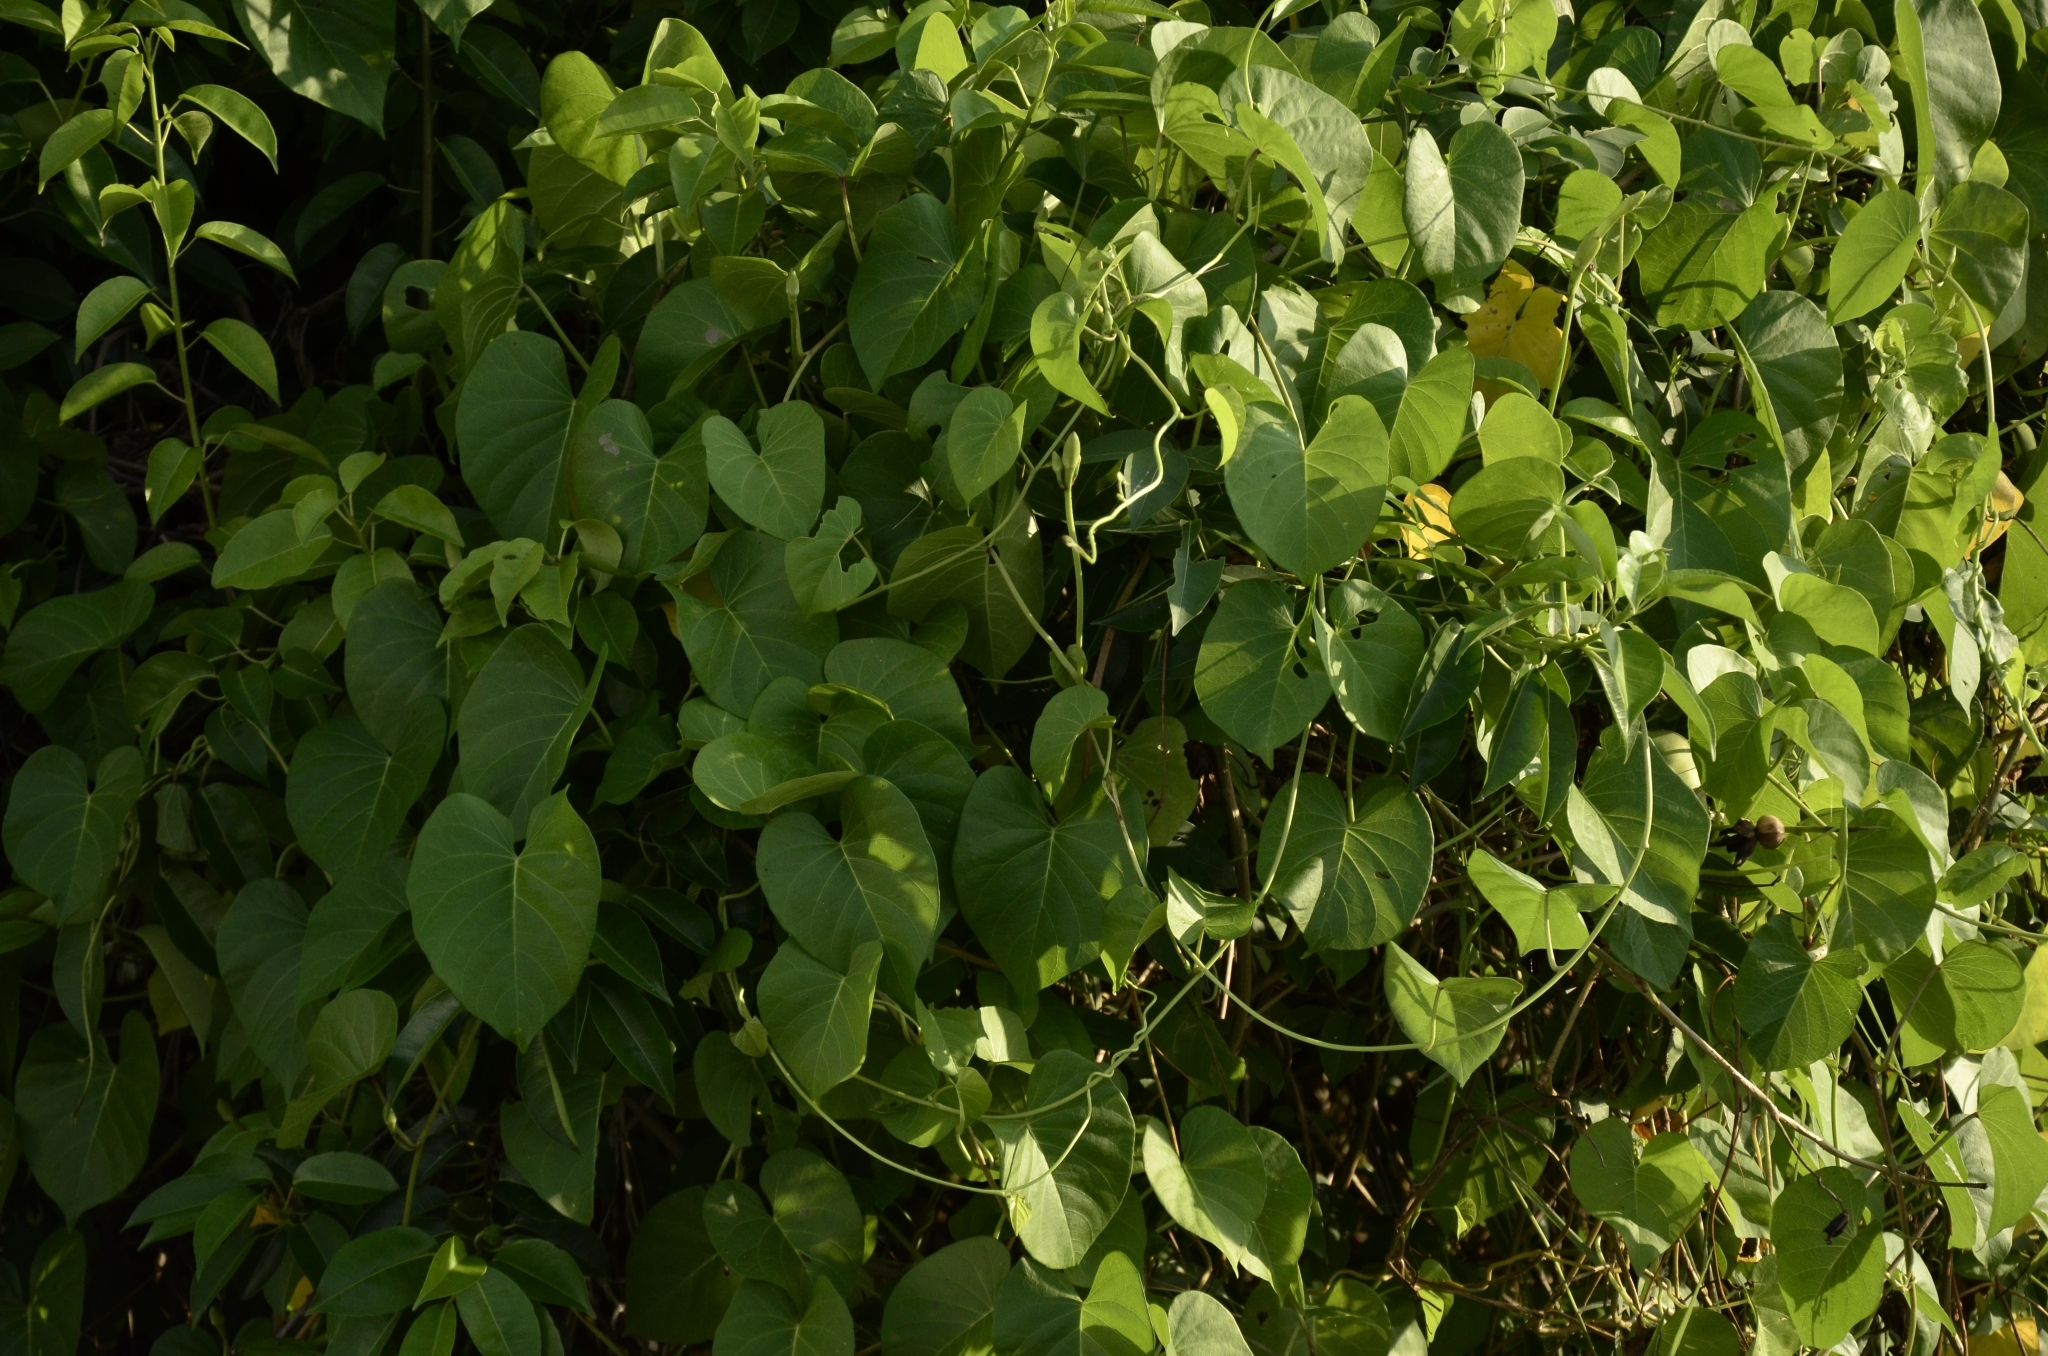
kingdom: Plantae
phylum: Tracheophyta
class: Magnoliopsida
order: Solanales
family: Convolvulaceae
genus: Ipomoea
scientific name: Ipomoea violacea
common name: Beach moonflower
